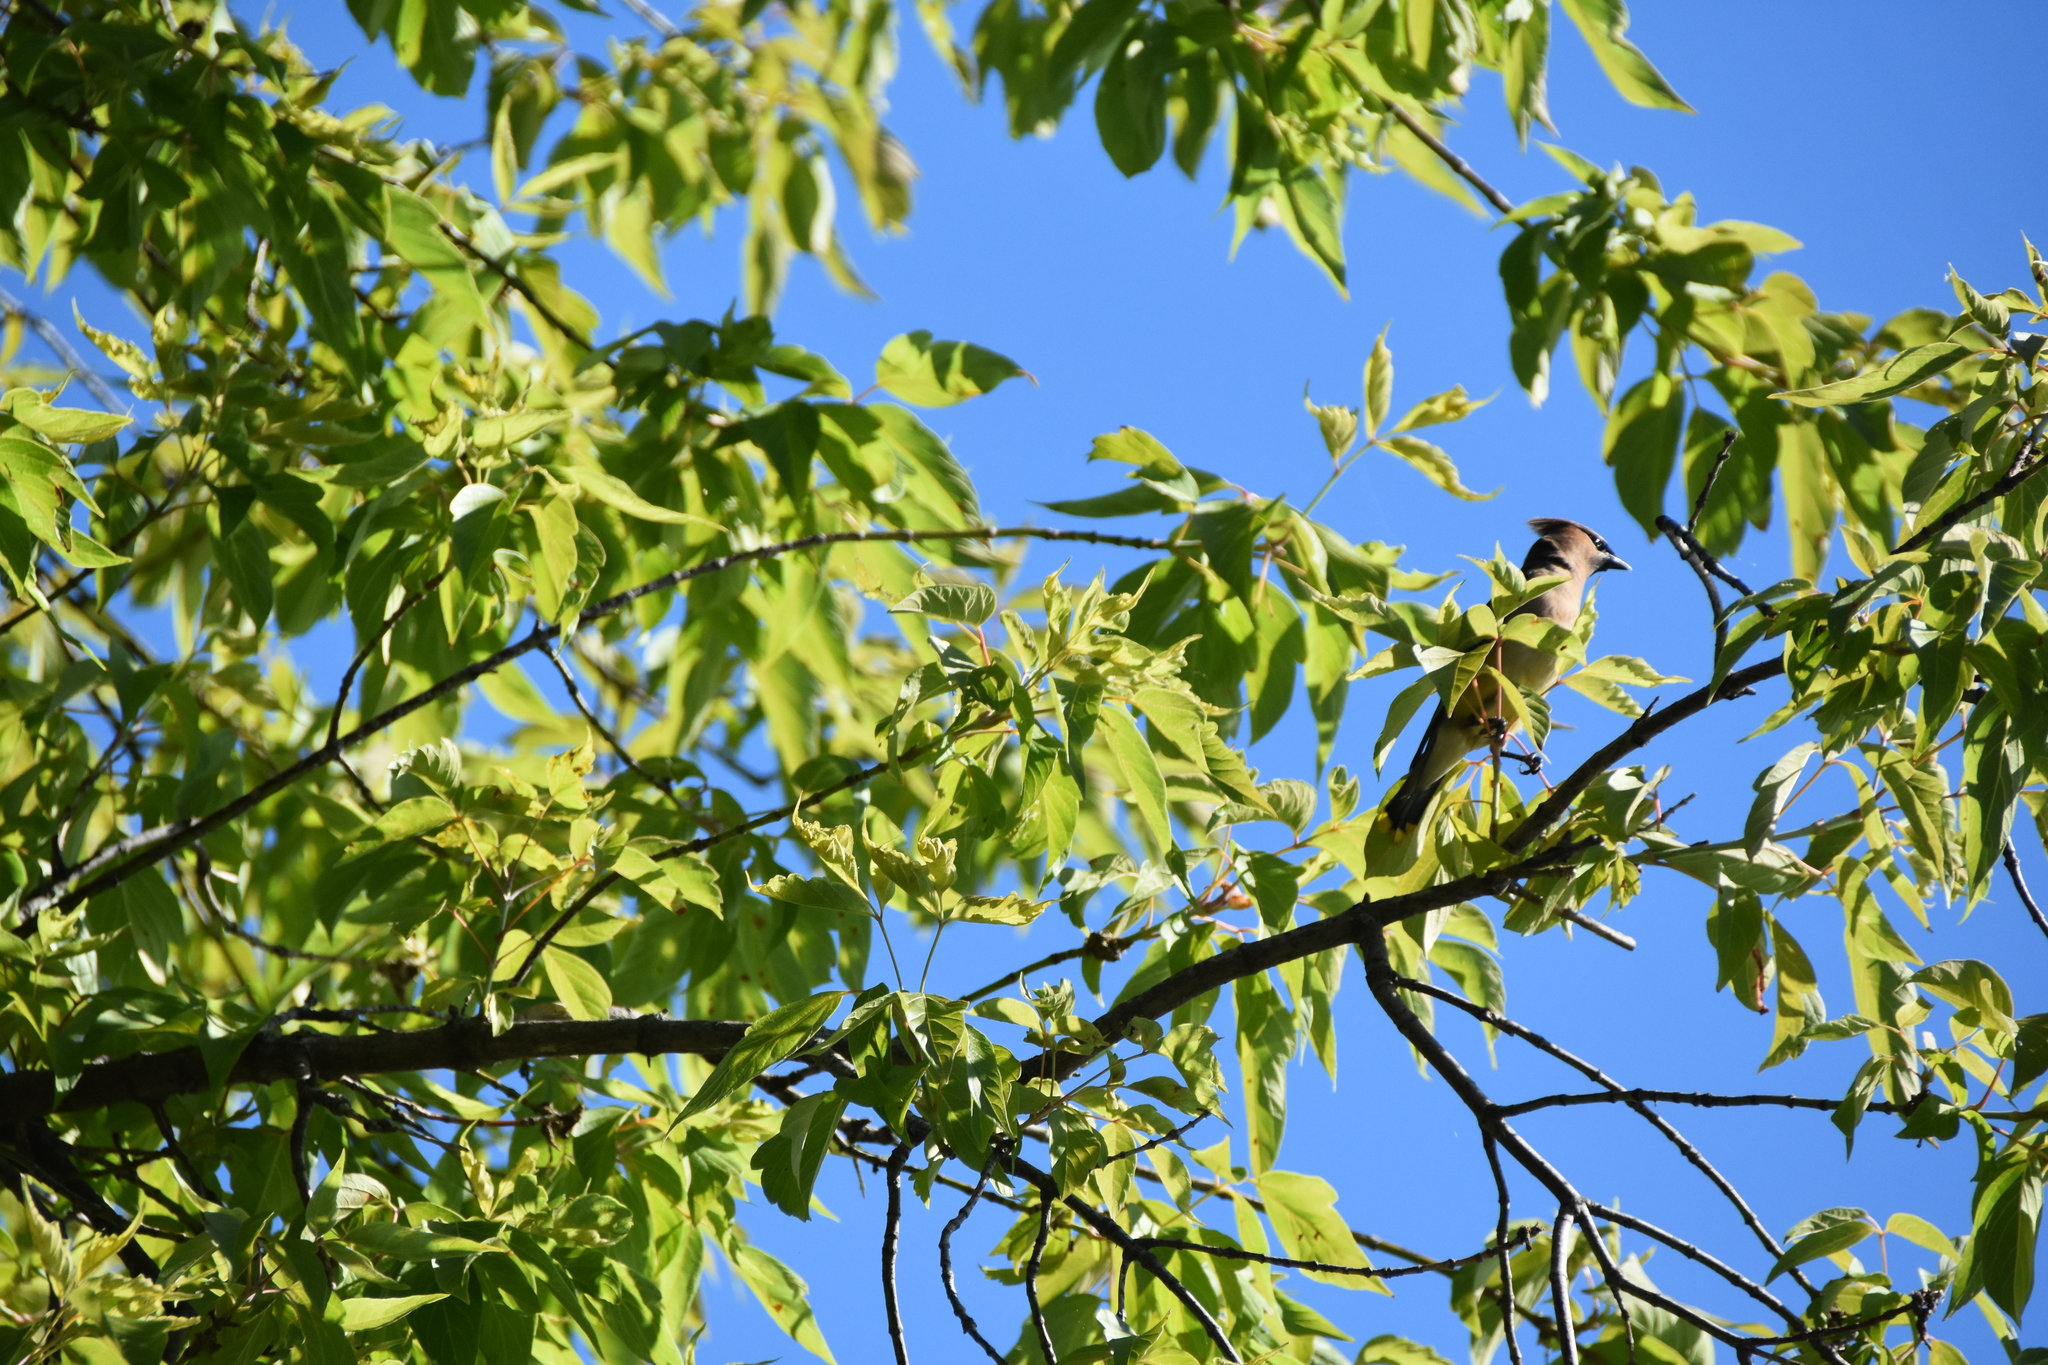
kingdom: Animalia
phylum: Chordata
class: Aves
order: Passeriformes
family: Bombycillidae
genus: Bombycilla
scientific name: Bombycilla cedrorum
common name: Cedar waxwing
